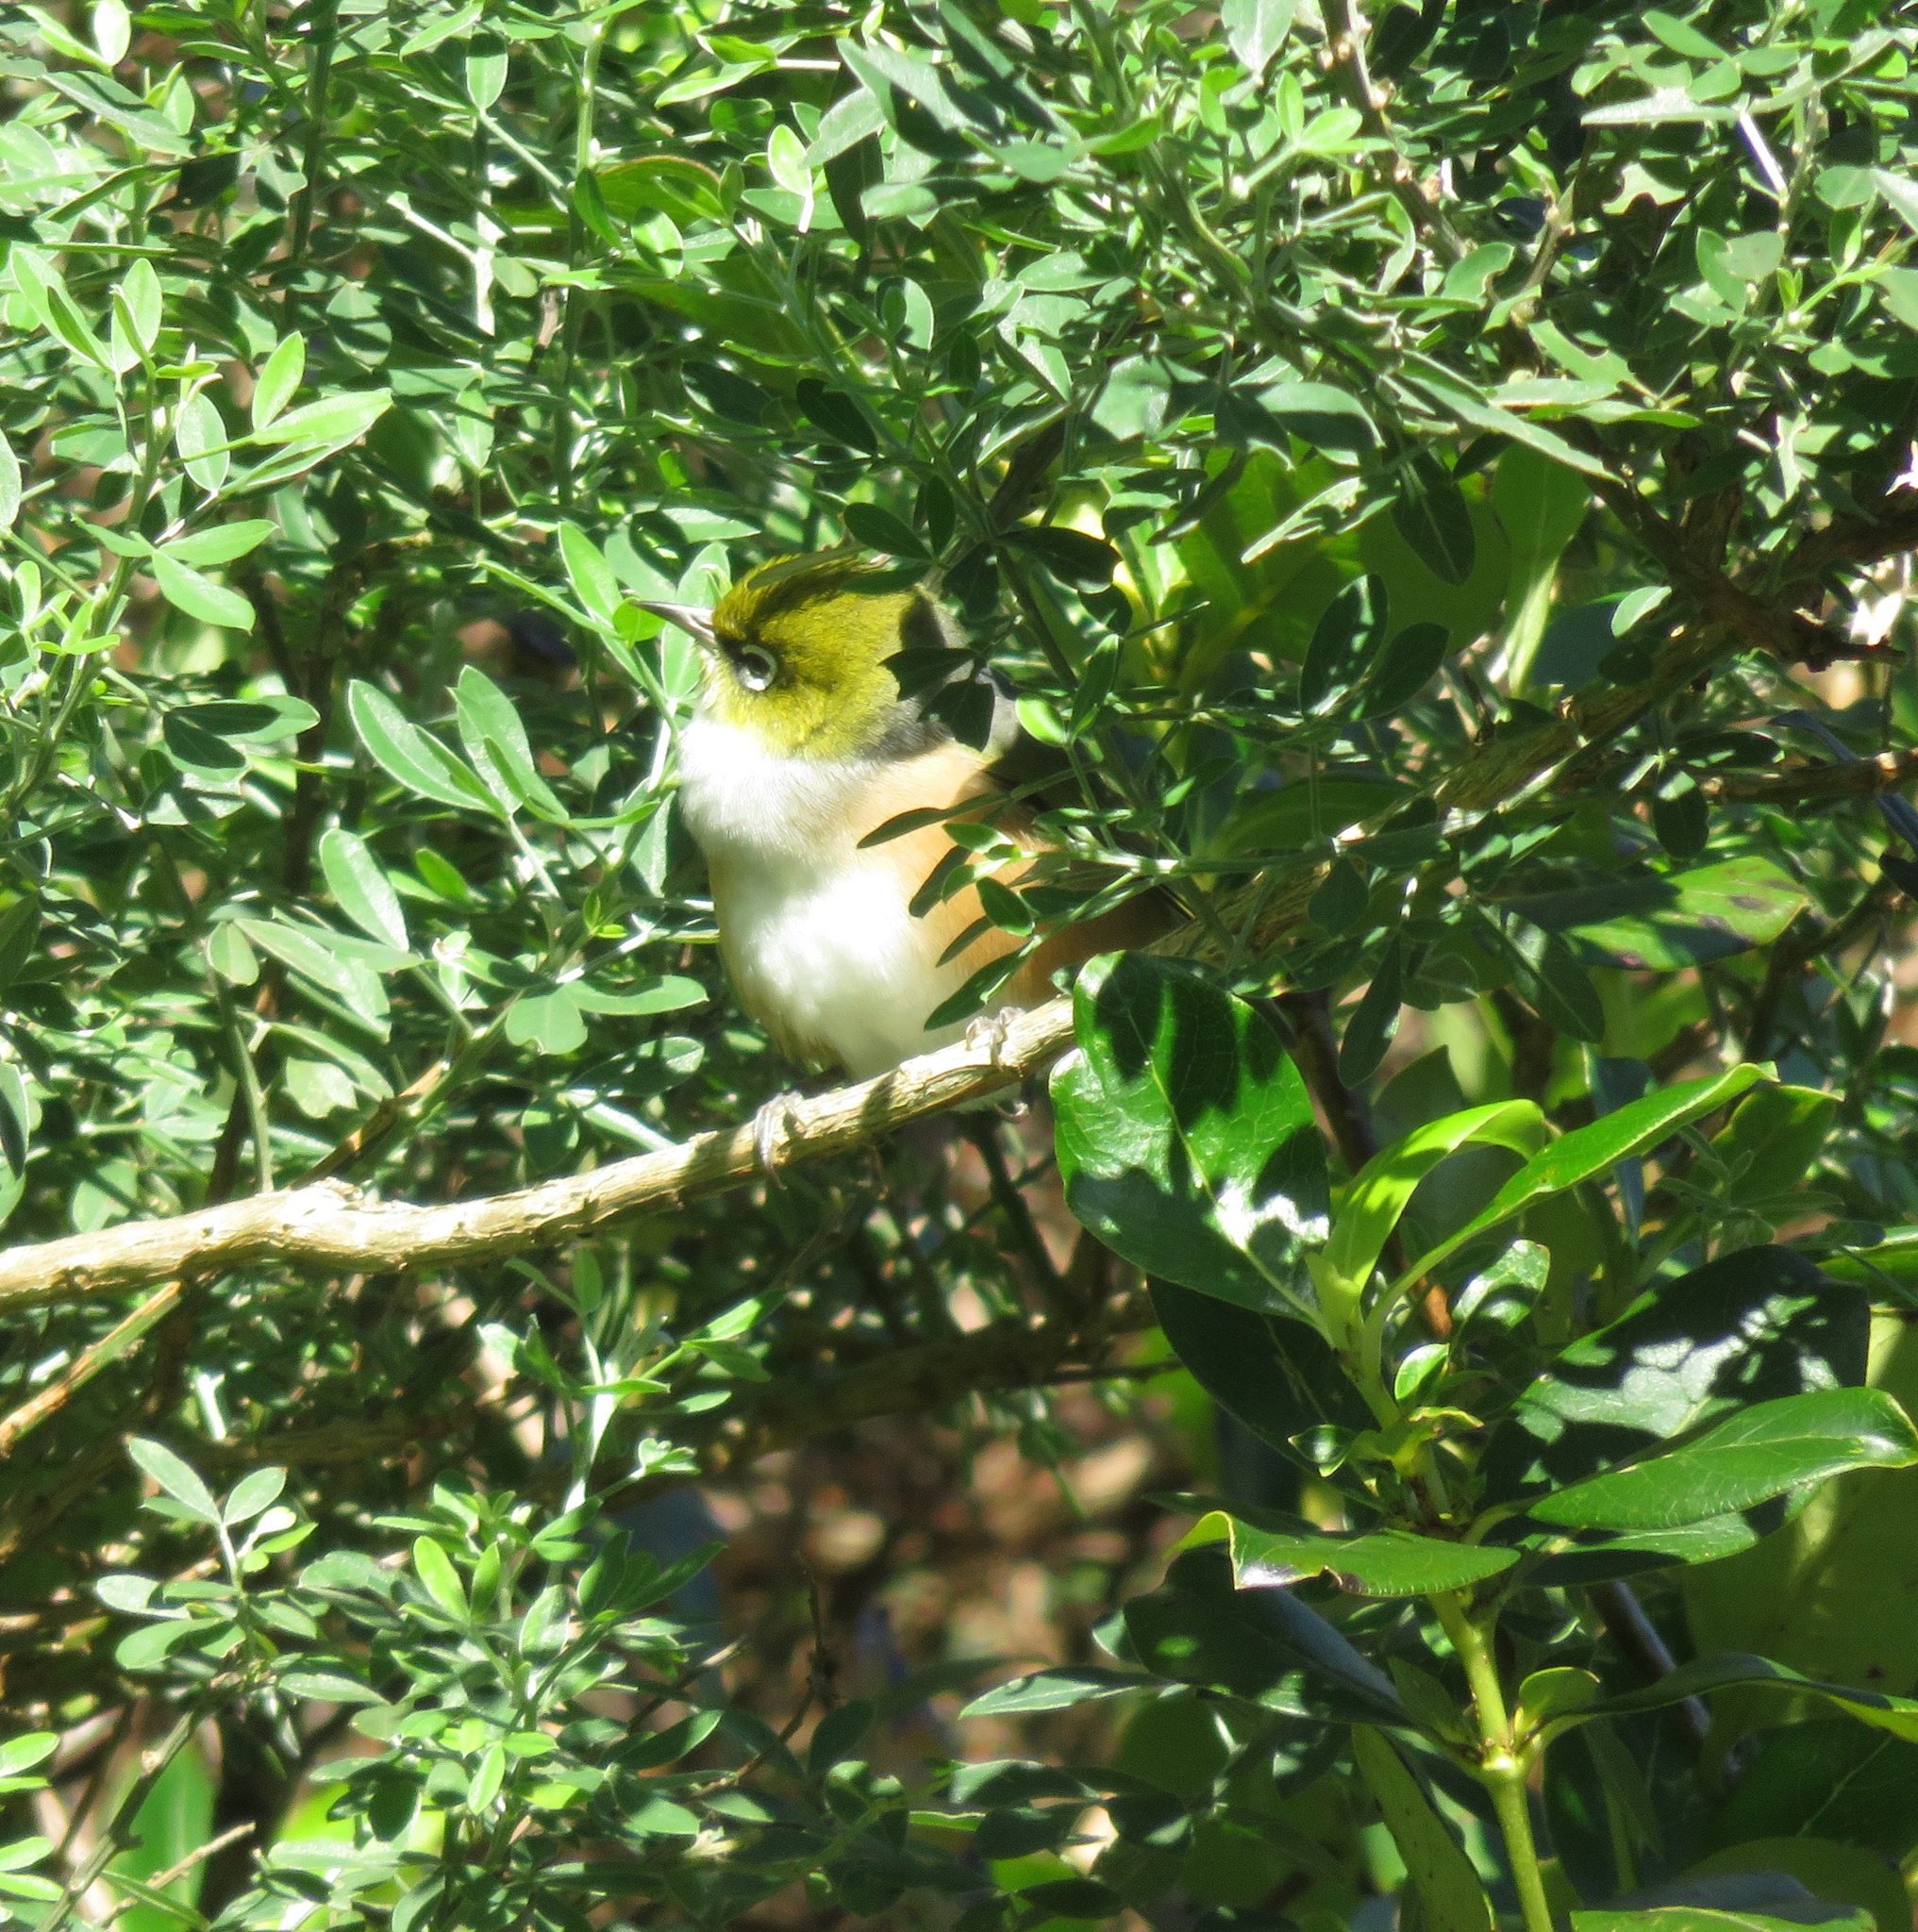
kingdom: Animalia
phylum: Chordata
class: Aves
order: Passeriformes
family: Zosteropidae
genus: Zosterops
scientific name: Zosterops lateralis
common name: Silvereye
